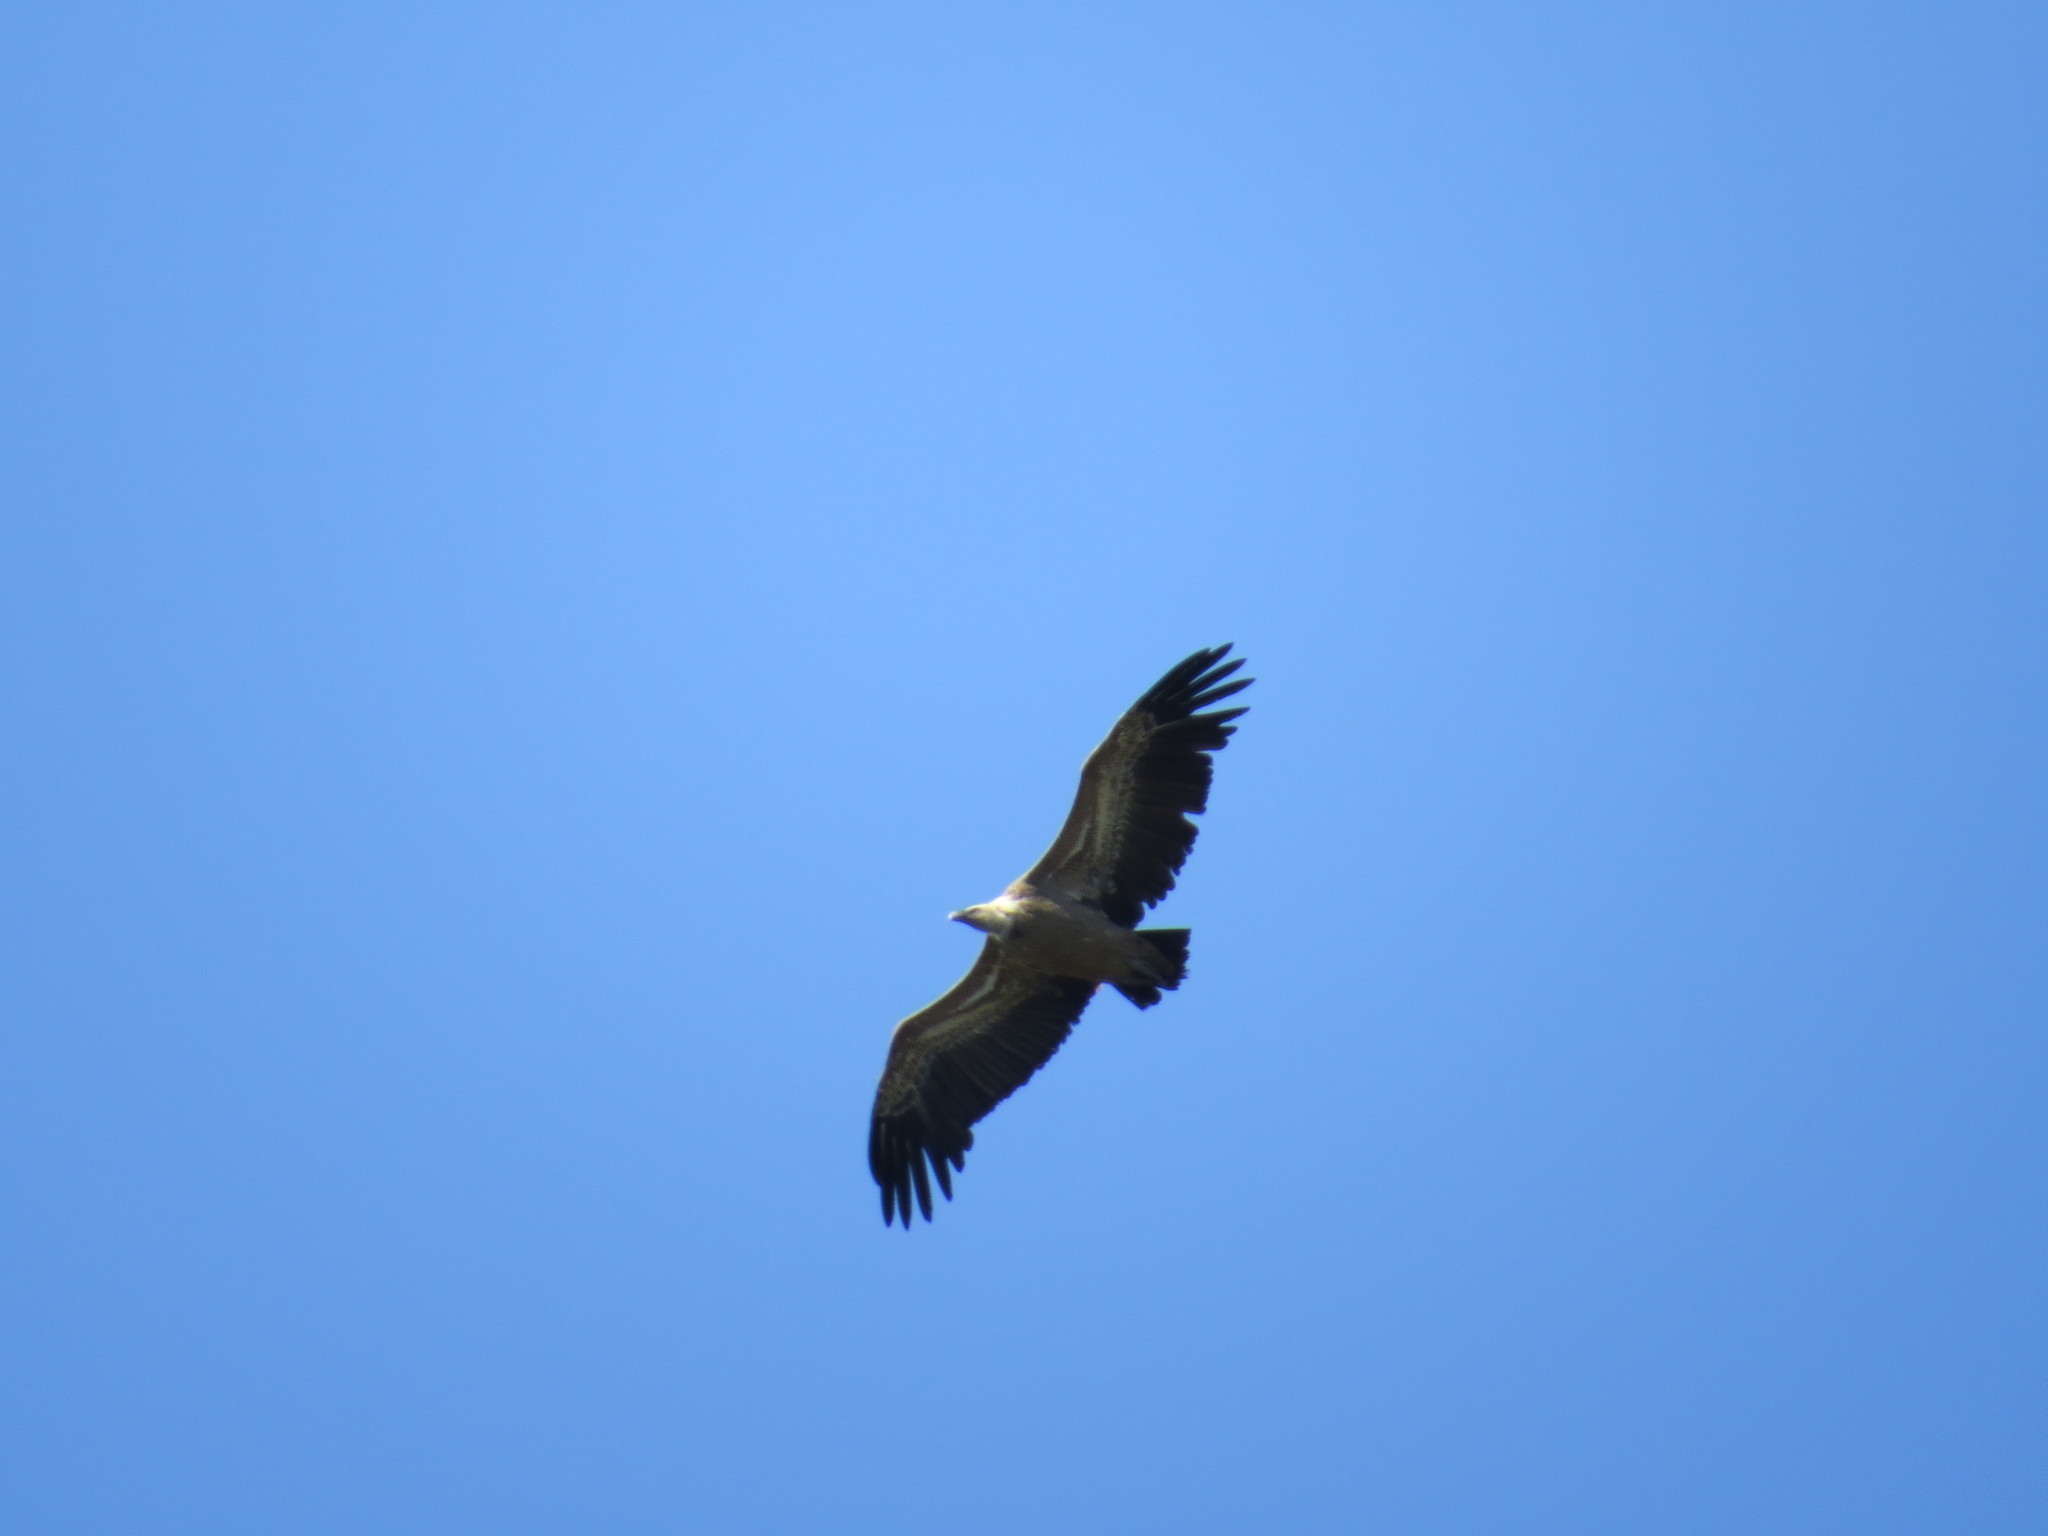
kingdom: Animalia
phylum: Chordata
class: Aves
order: Accipitriformes
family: Accipitridae
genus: Gyps
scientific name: Gyps fulvus
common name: Griffon vulture
